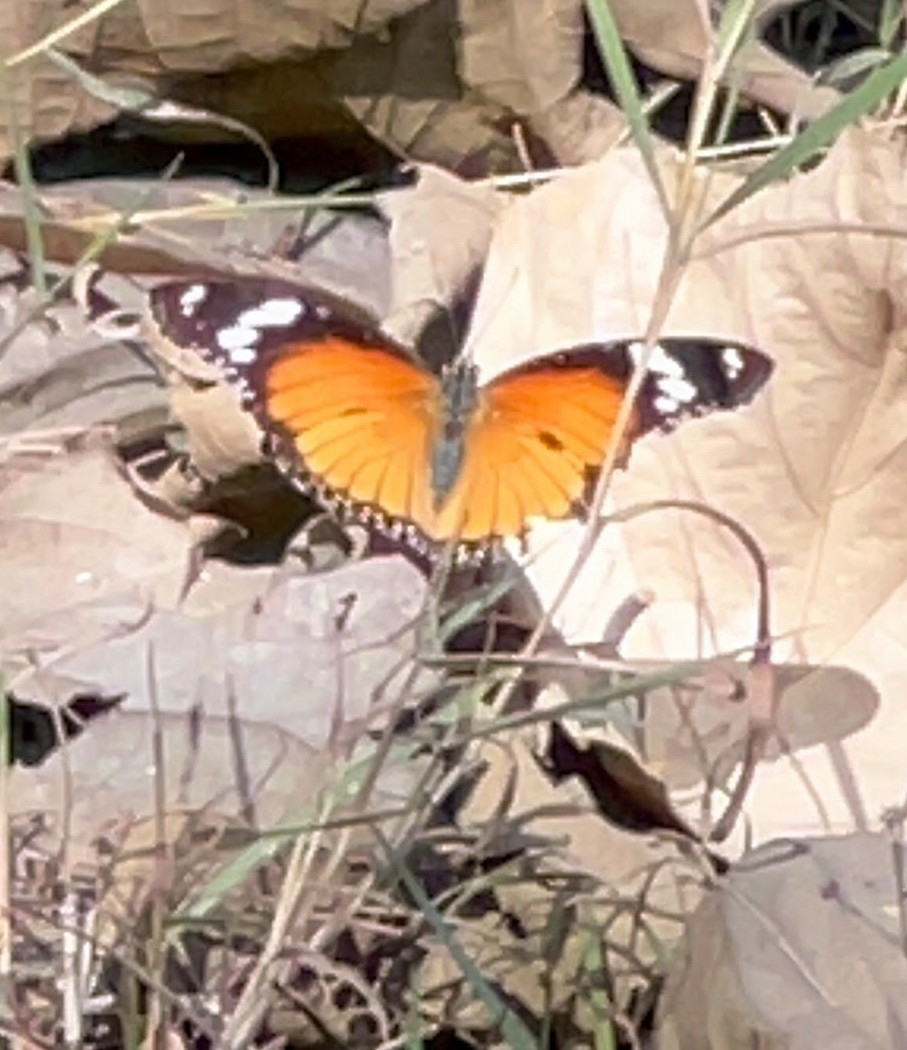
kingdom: Animalia
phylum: Arthropoda
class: Insecta
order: Lepidoptera
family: Nymphalidae
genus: Hypolimnas
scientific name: Hypolimnas misippus
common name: False plain tiger
